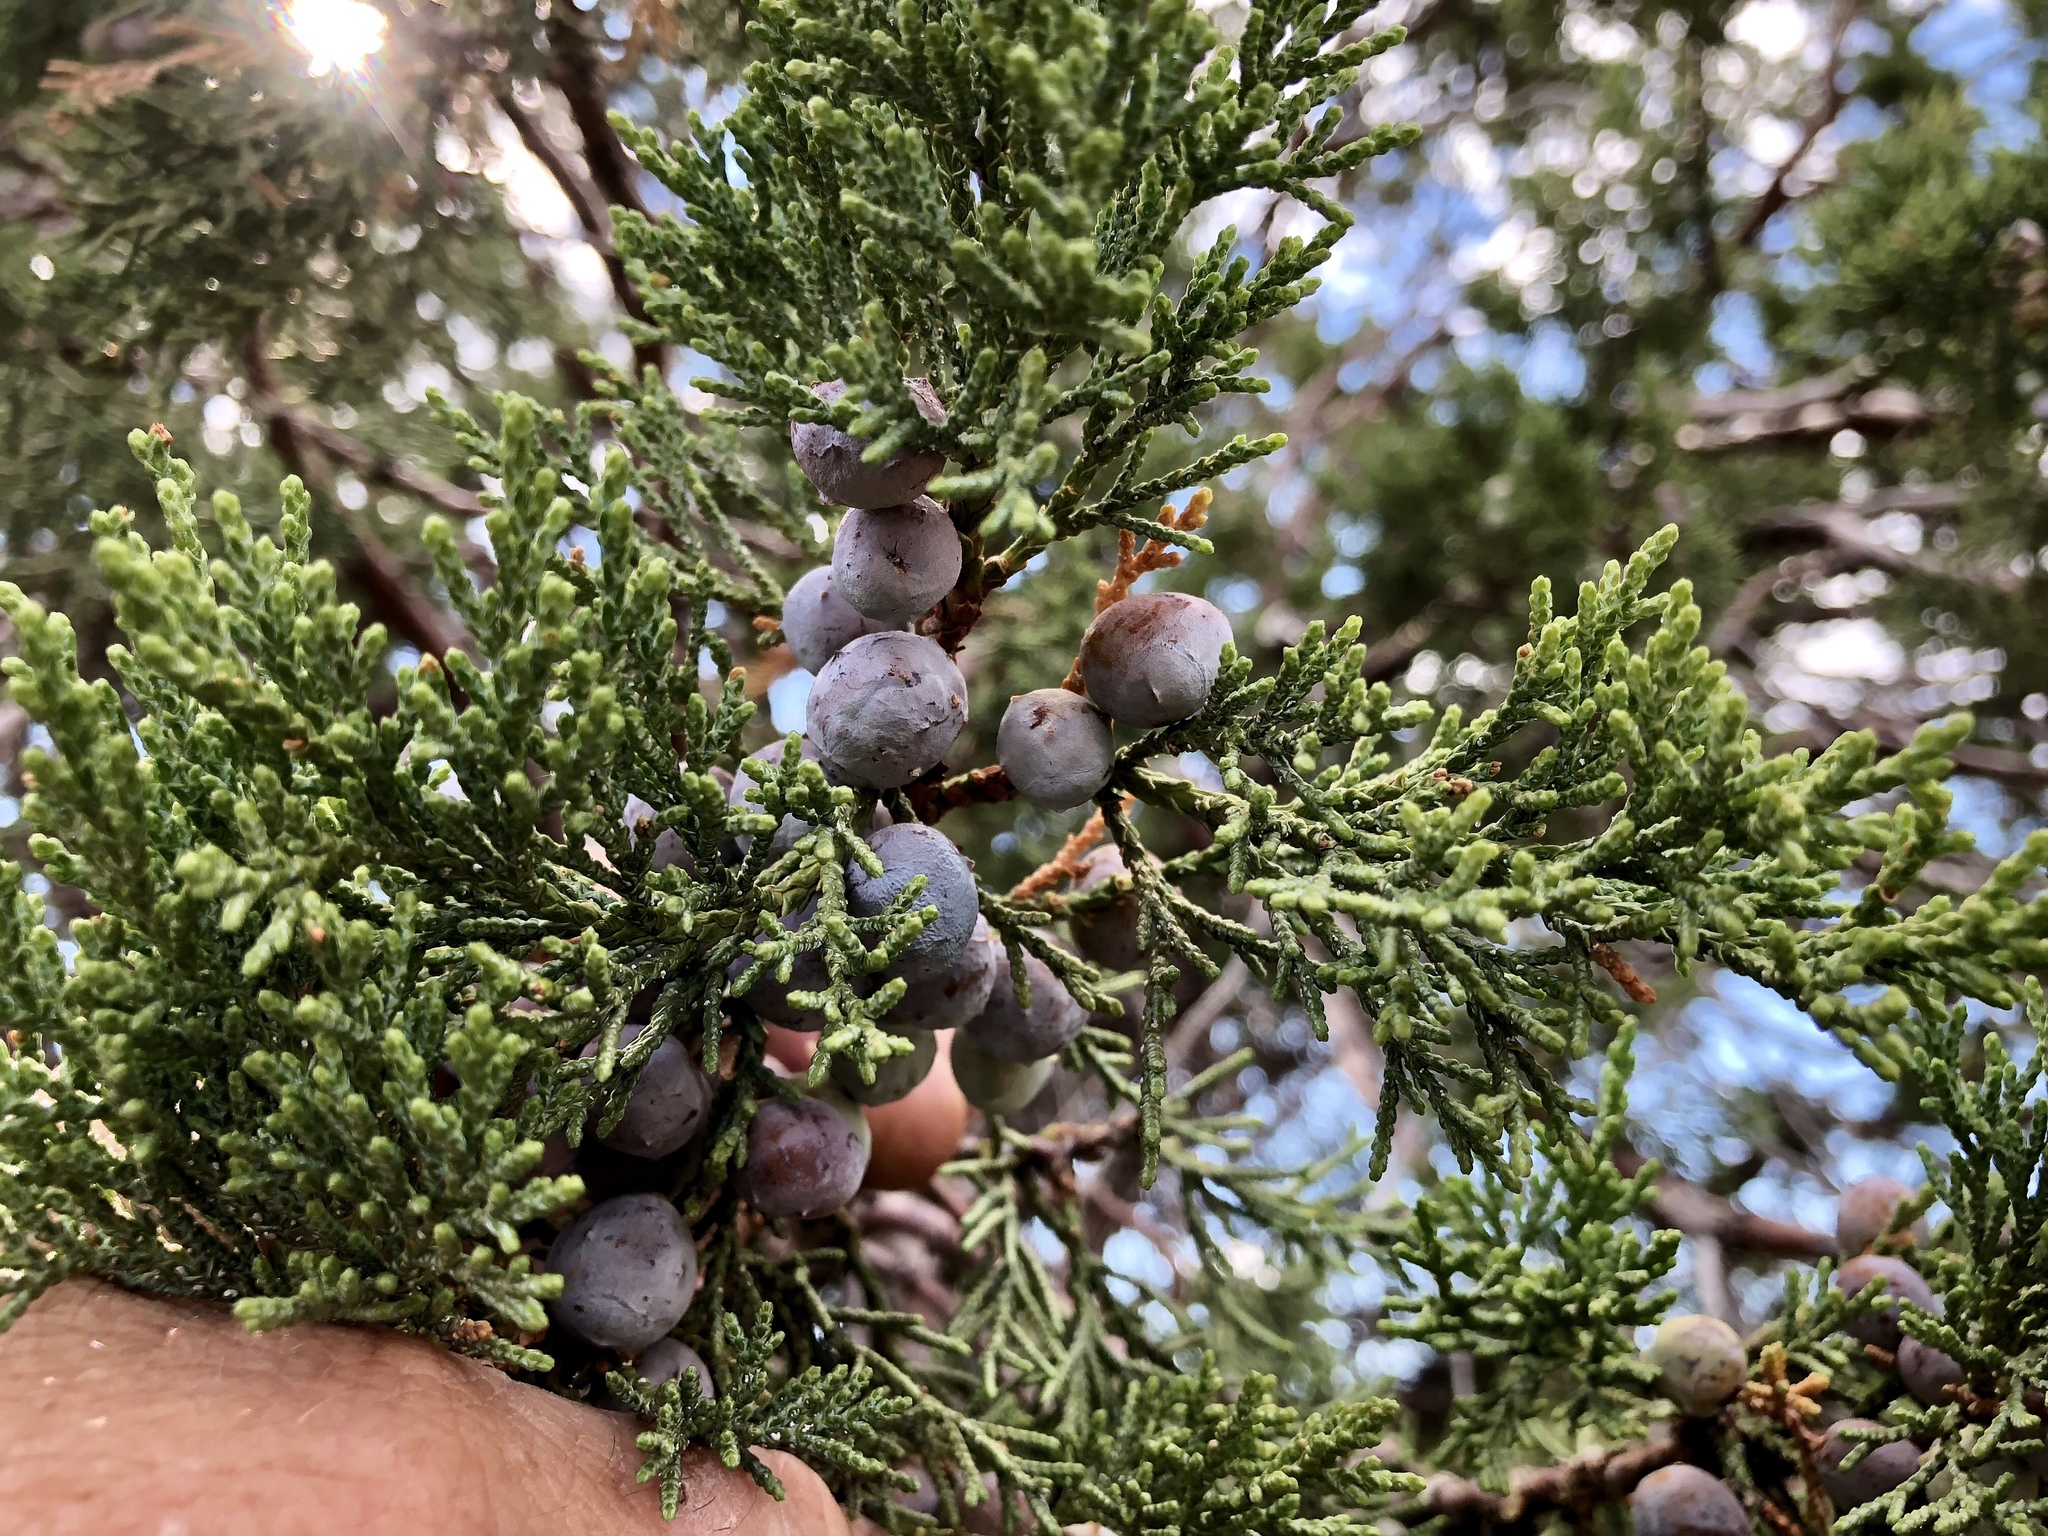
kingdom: Plantae
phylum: Tracheophyta
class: Pinopsida
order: Pinales
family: Cupressaceae
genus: Juniperus
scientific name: Juniperus deppeana
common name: Alligator juniper
